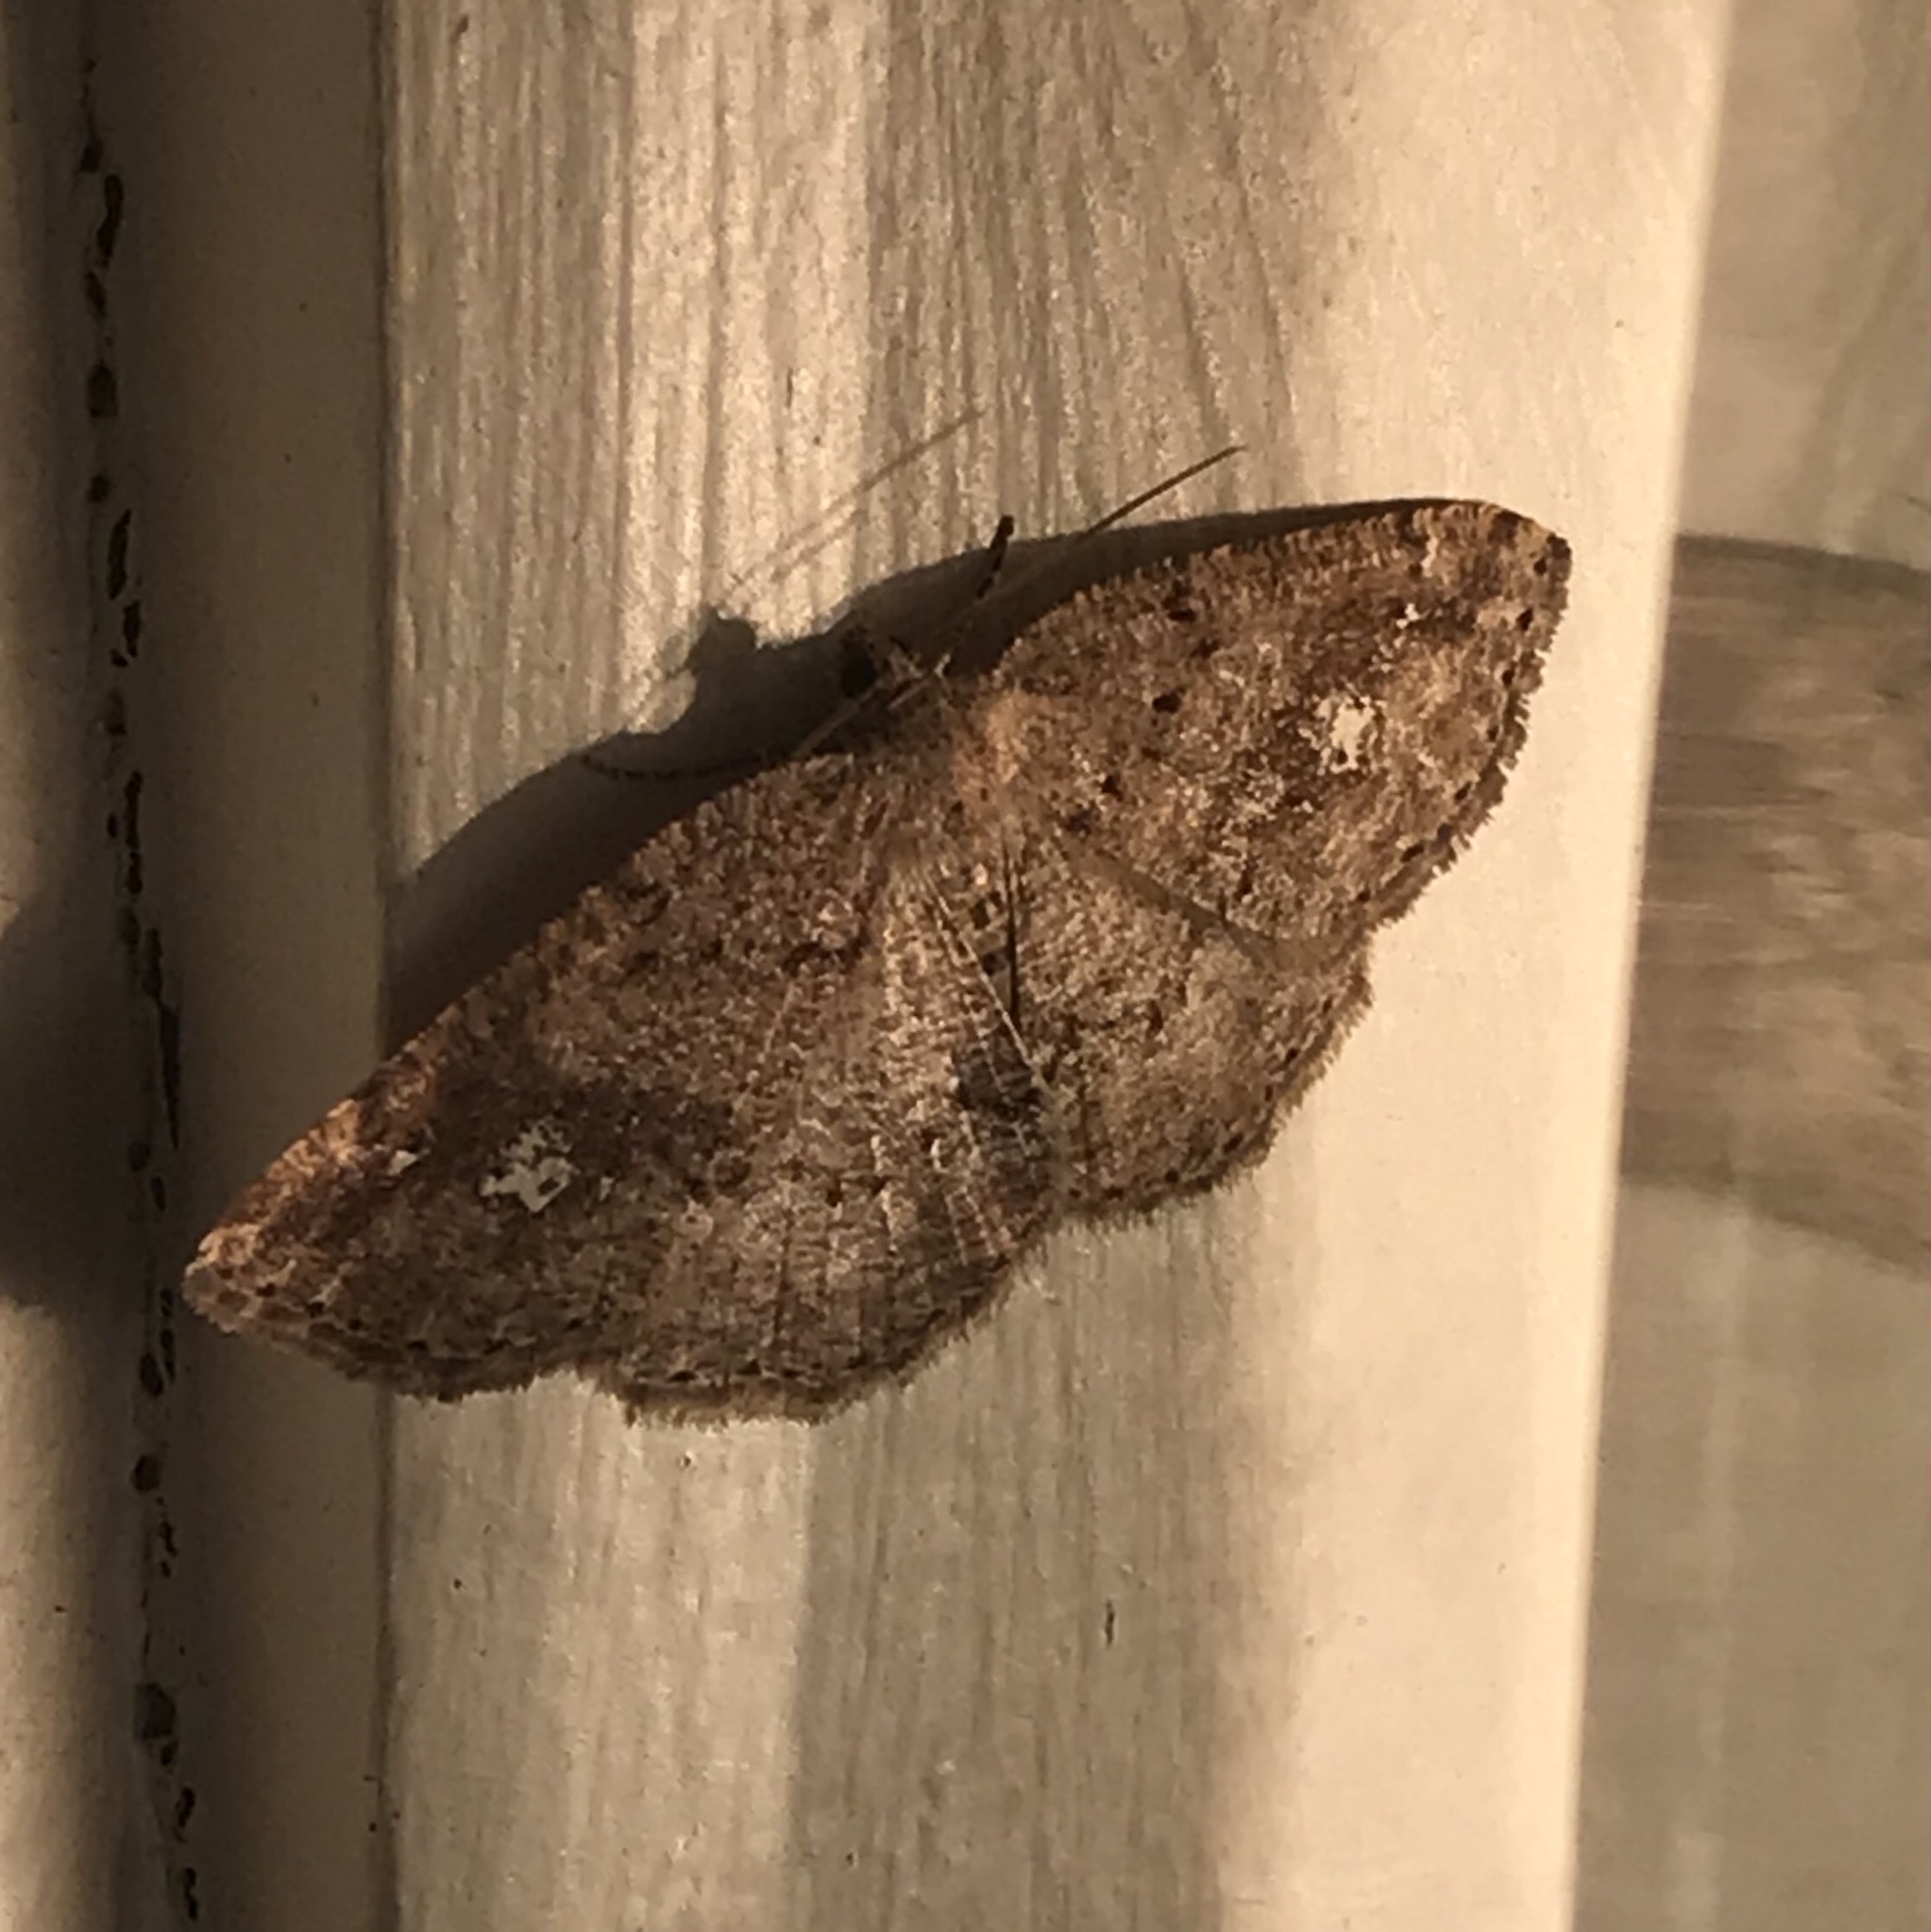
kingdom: Animalia
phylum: Arthropoda
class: Insecta
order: Lepidoptera
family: Geometridae
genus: Homochlodes
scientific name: Homochlodes fritillaria
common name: Pale homochlodes
